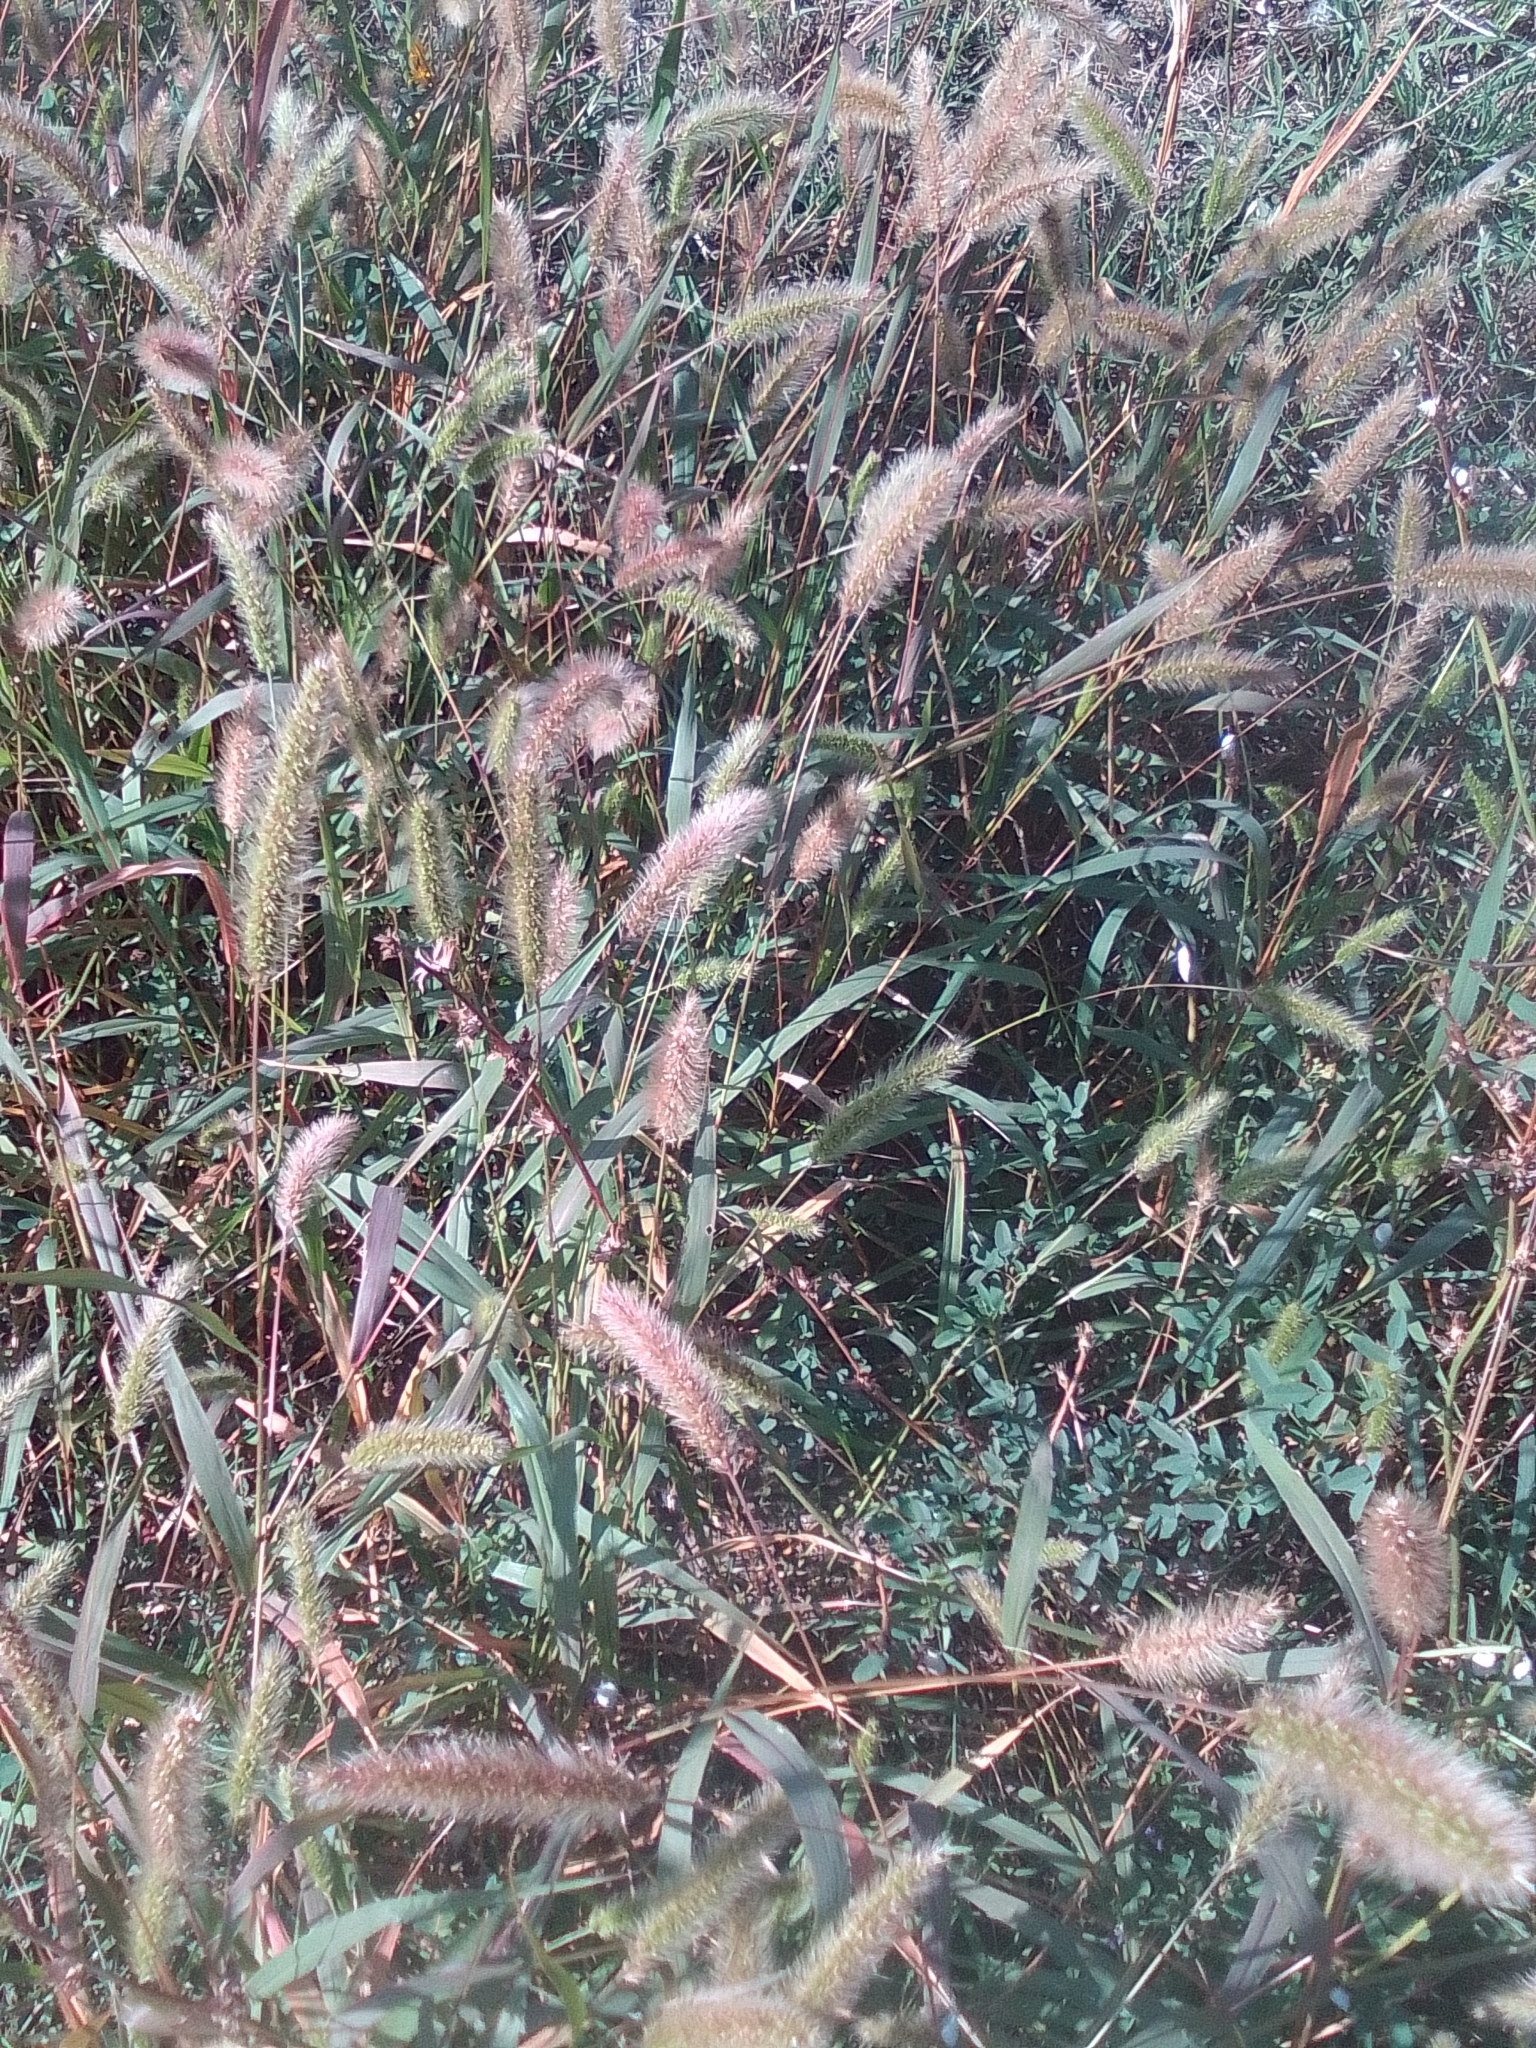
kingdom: Plantae
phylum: Tracheophyta
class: Liliopsida
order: Poales
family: Poaceae
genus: Setaria
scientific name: Setaria viridis
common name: Green bristlegrass
